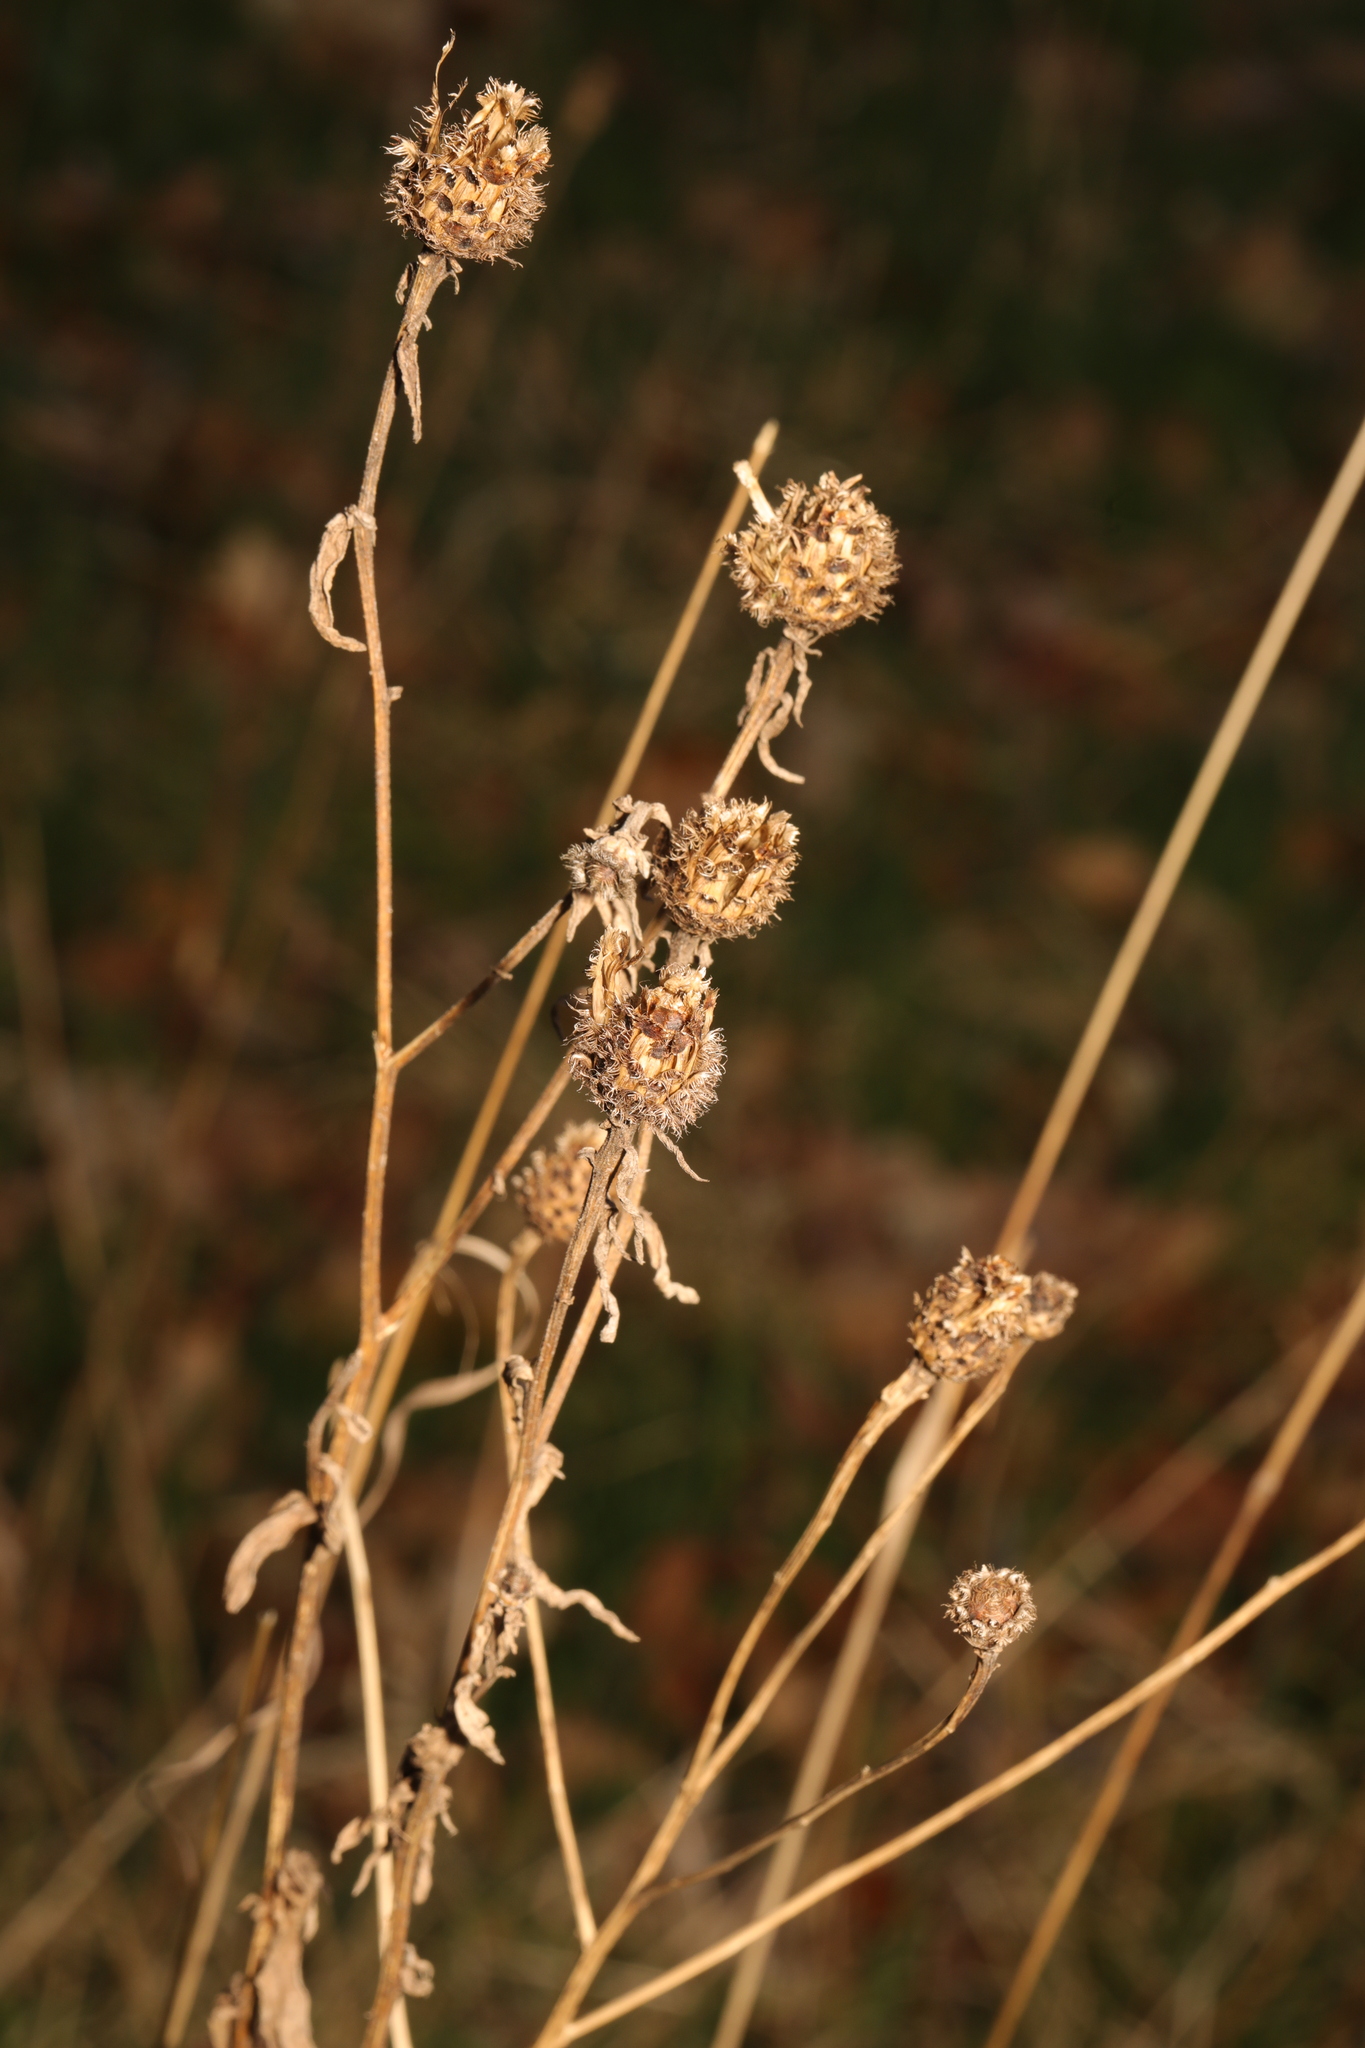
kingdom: Plantae
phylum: Tracheophyta
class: Magnoliopsida
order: Asterales
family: Asteraceae
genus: Centaurea
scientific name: Centaurea nigra
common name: Lesser knapweed
